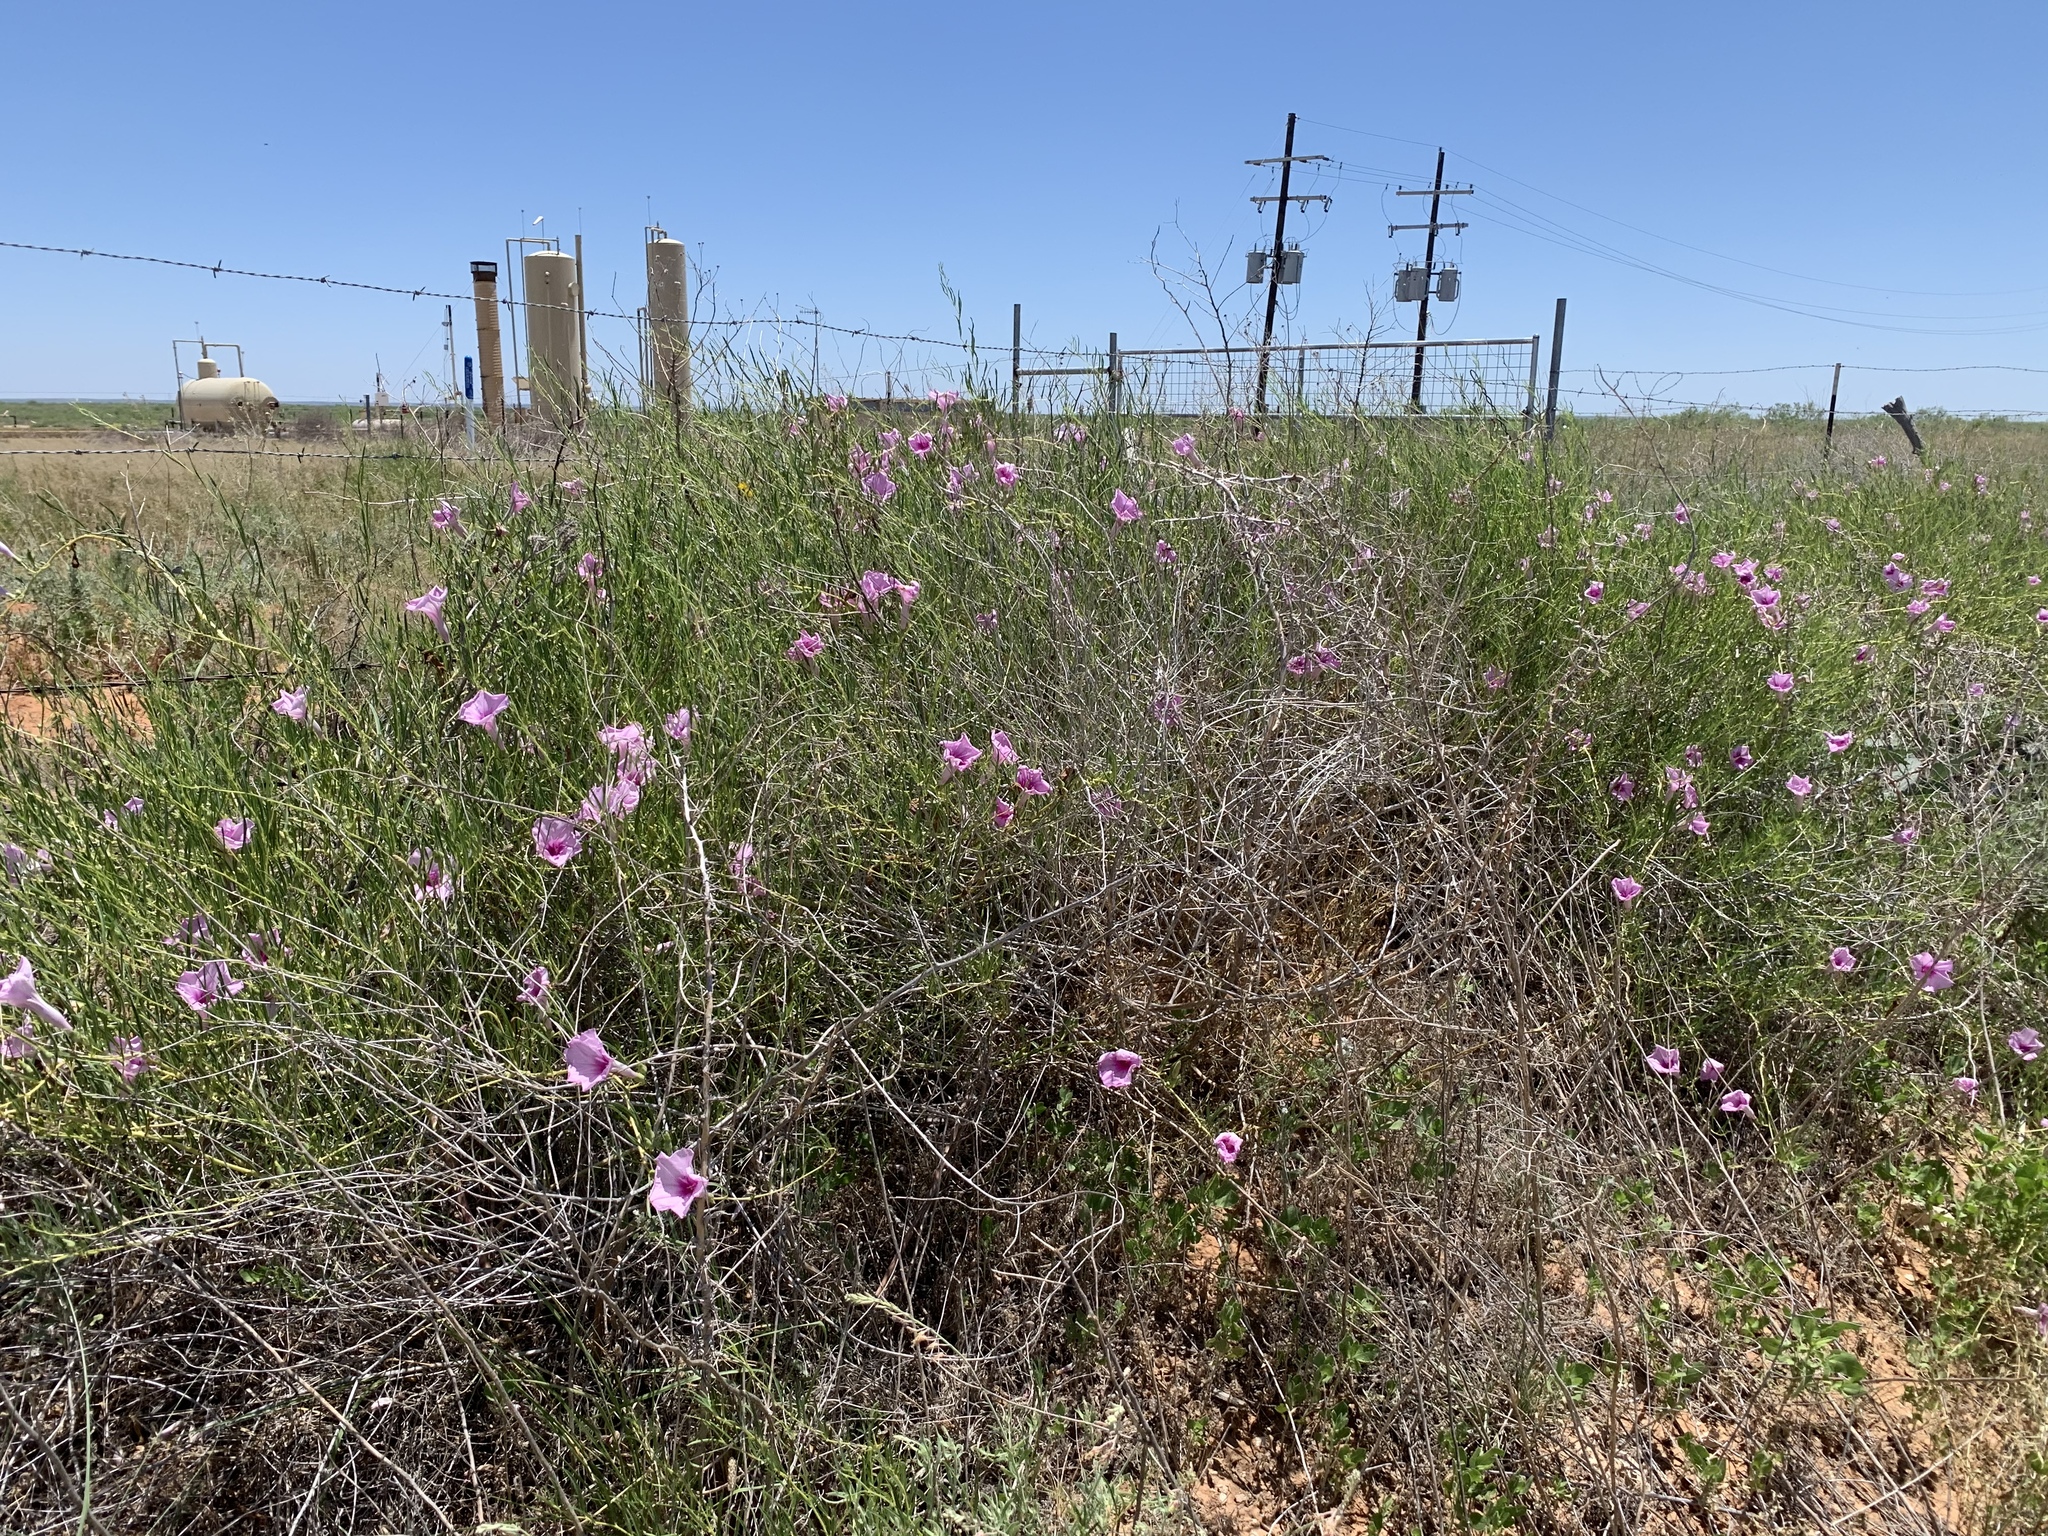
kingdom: Plantae
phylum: Tracheophyta
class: Magnoliopsida
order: Solanales
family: Convolvulaceae
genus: Ipomoea
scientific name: Ipomoea leptophylla
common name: Bush moonflower
